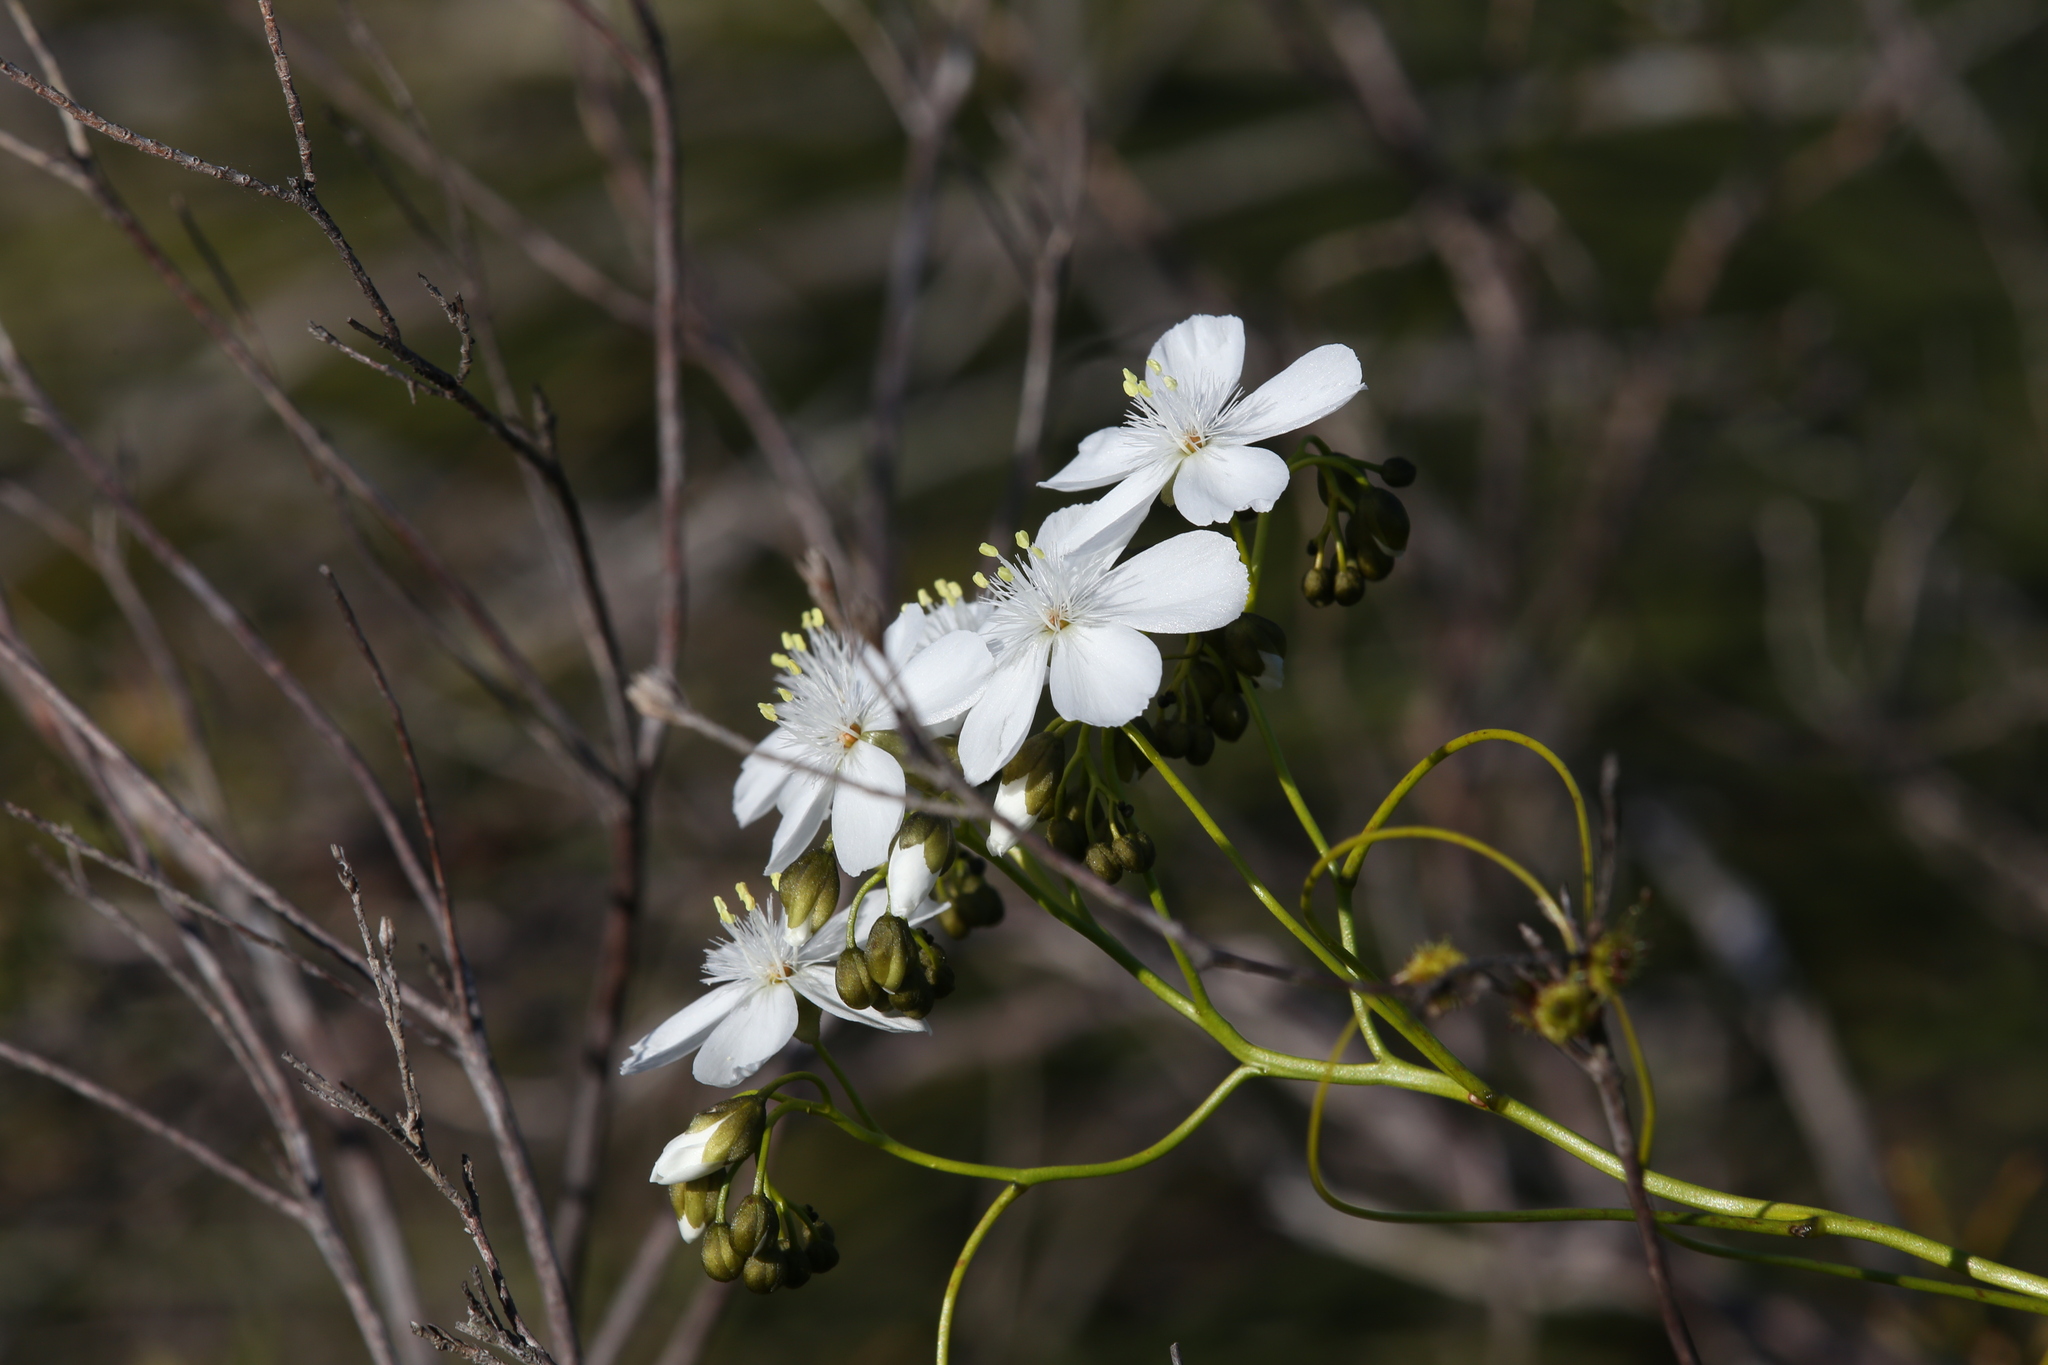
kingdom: Plantae
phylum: Tracheophyta
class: Magnoliopsida
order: Caryophyllales
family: Droseraceae
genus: Drosera
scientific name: Drosera pallida
